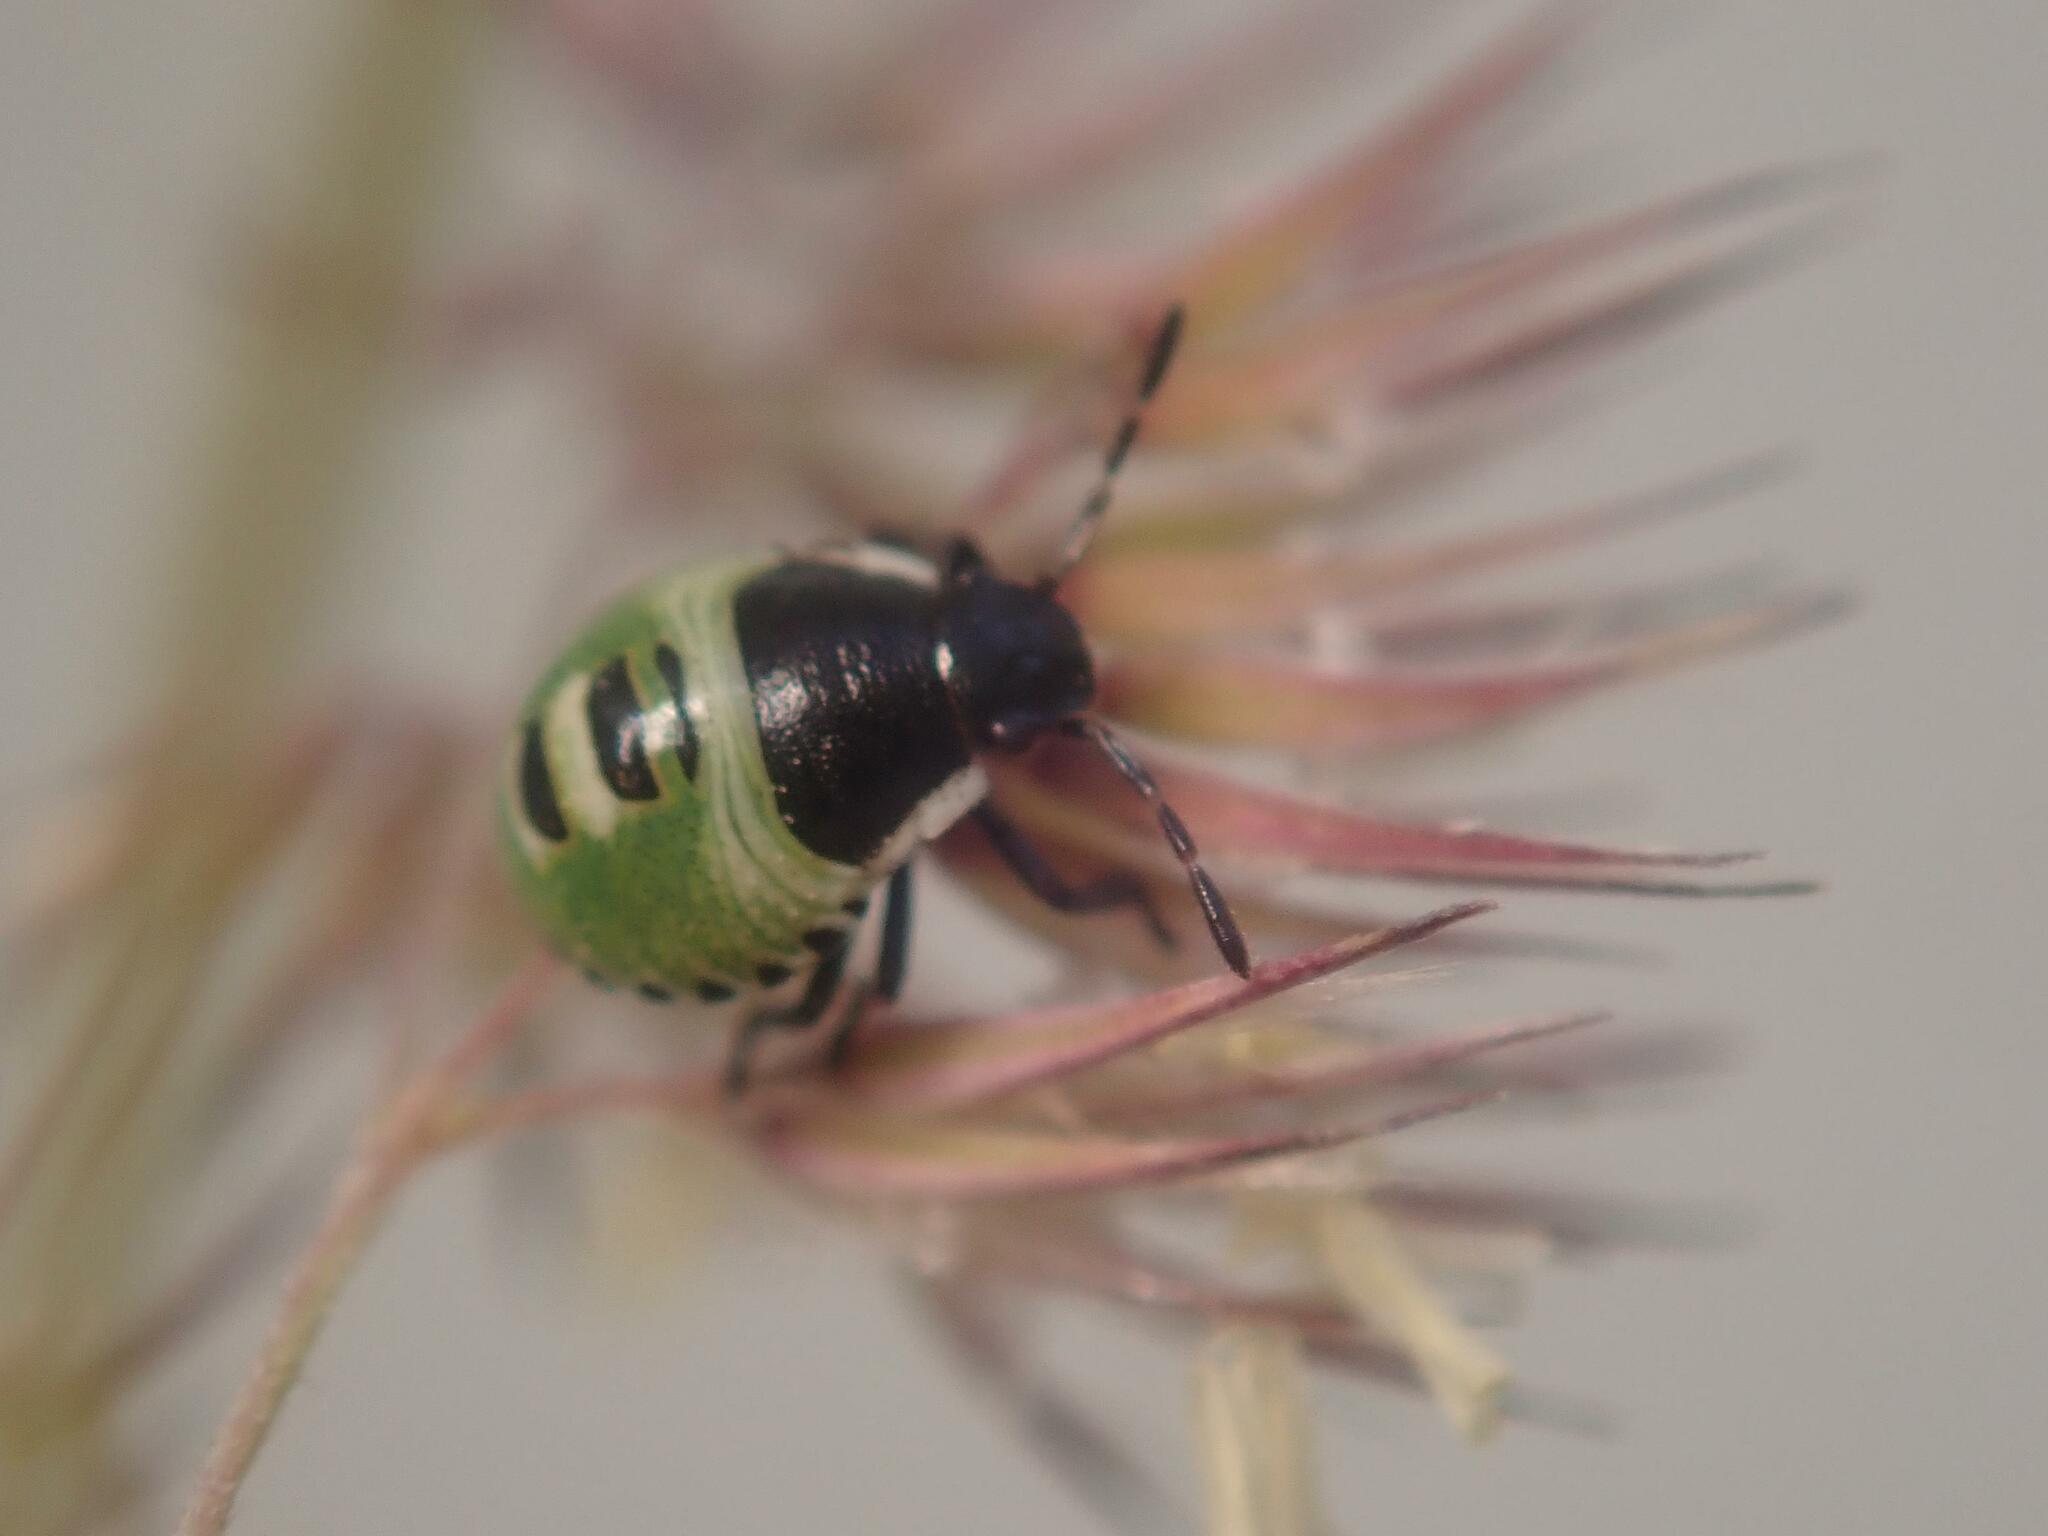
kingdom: Animalia
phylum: Arthropoda
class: Insecta
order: Hemiptera
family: Pentatomidae
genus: Palomena
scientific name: Palomena prasina
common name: Green shieldbug
